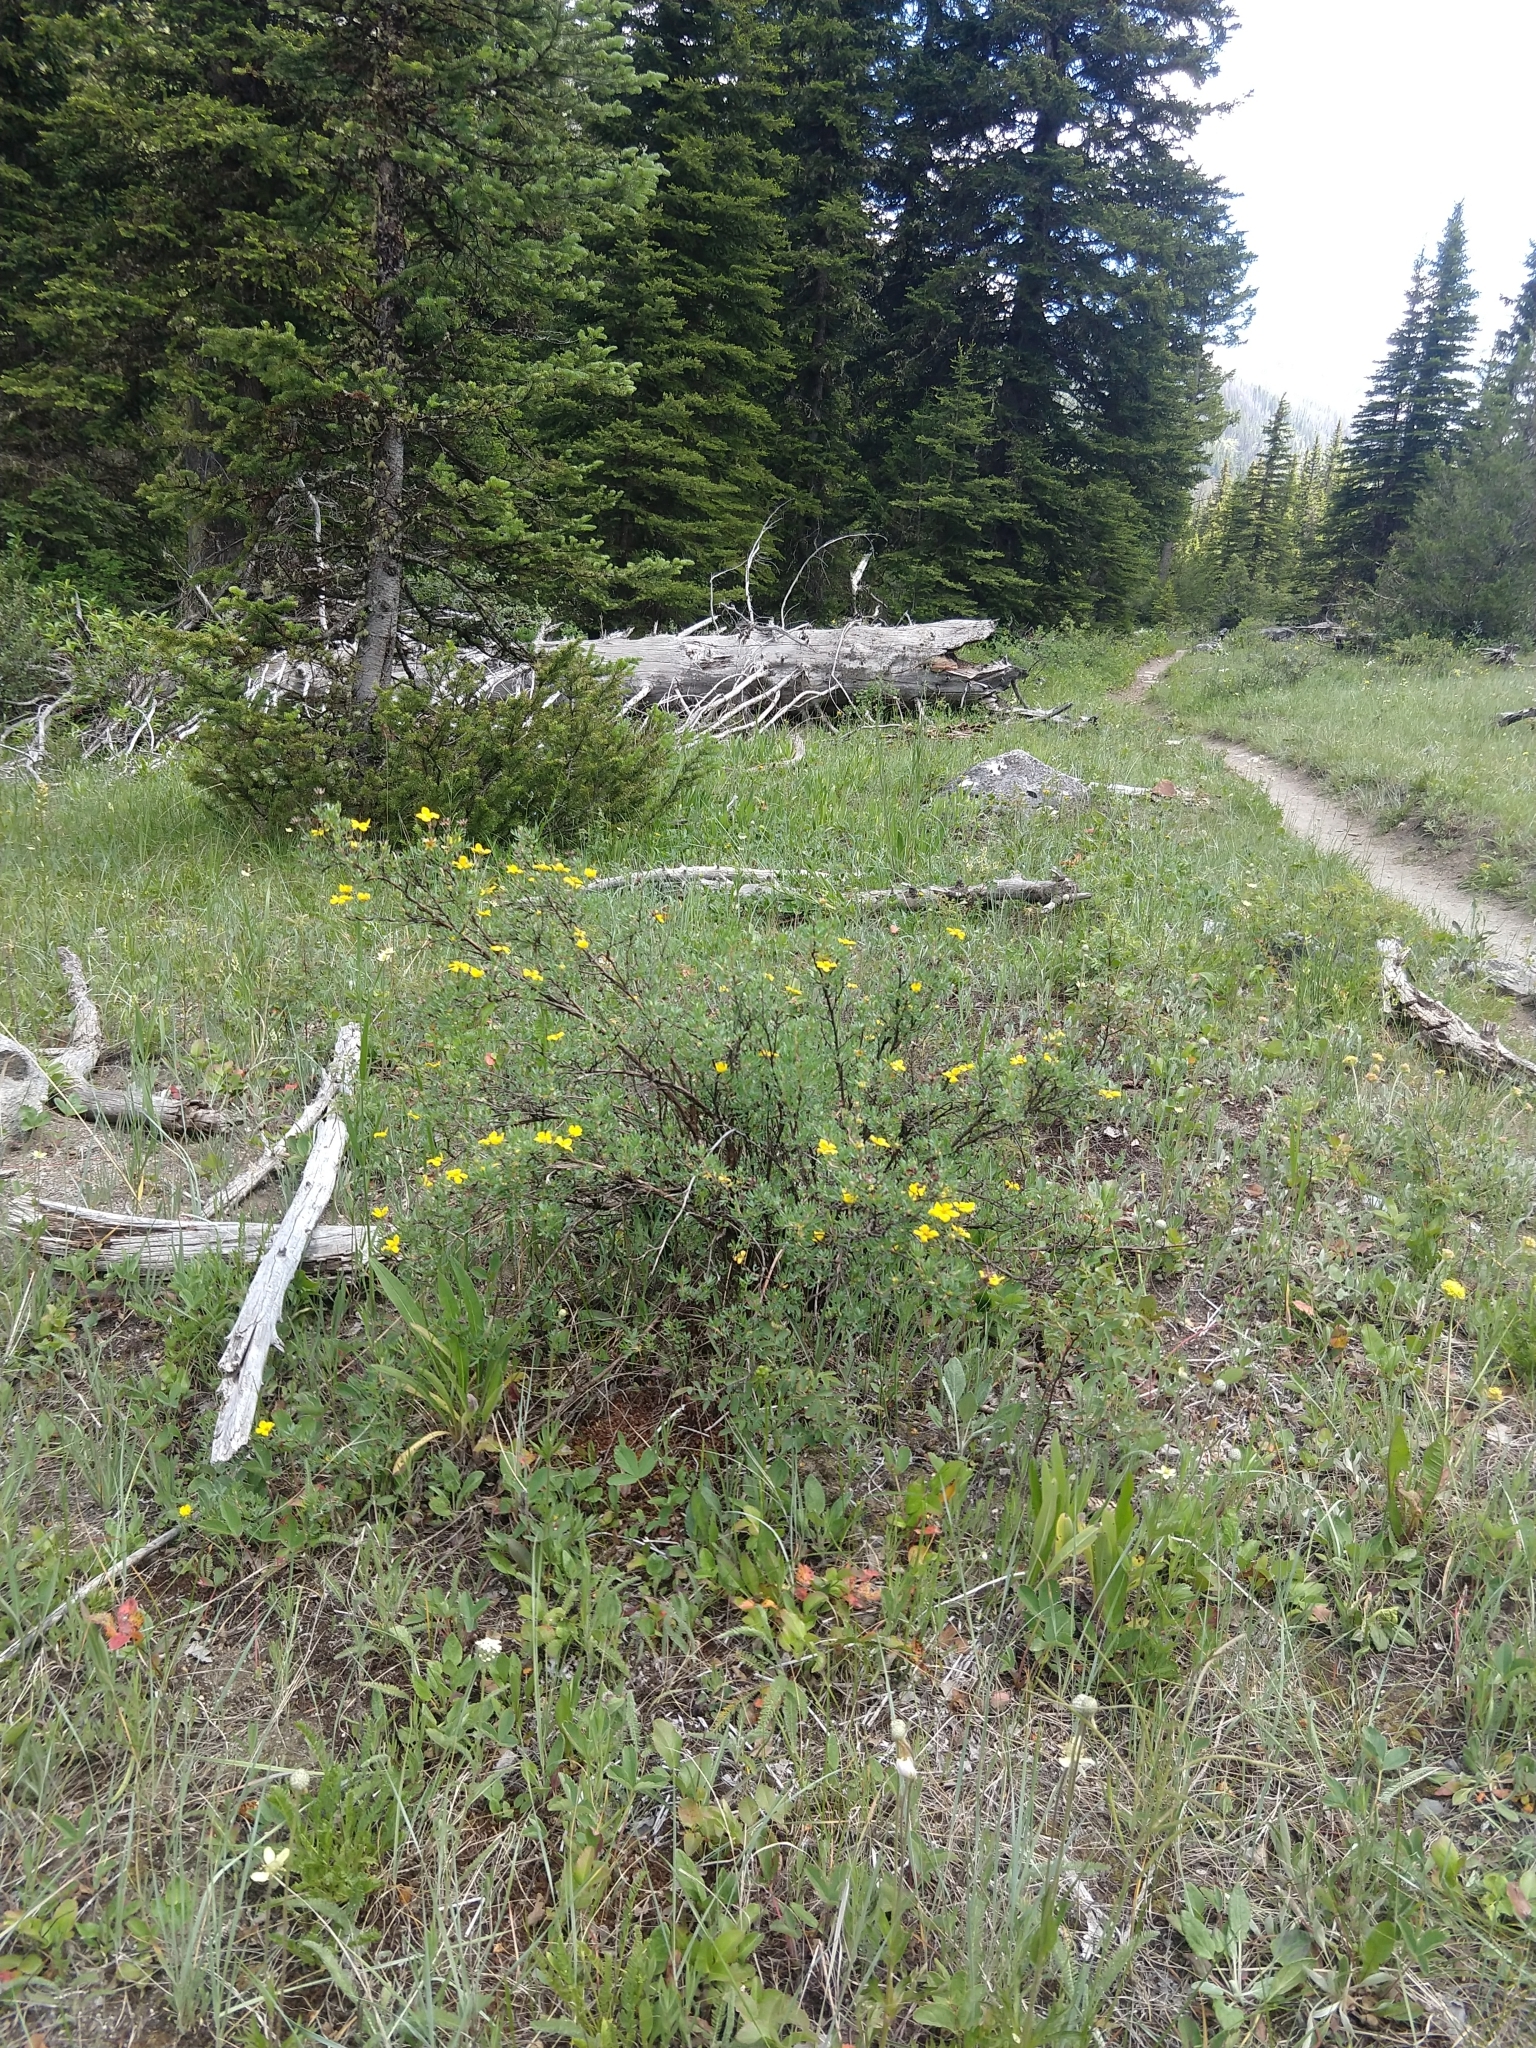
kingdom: Plantae
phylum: Tracheophyta
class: Magnoliopsida
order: Rosales
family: Rosaceae
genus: Dasiphora
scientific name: Dasiphora fruticosa
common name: Shrubby cinquefoil
